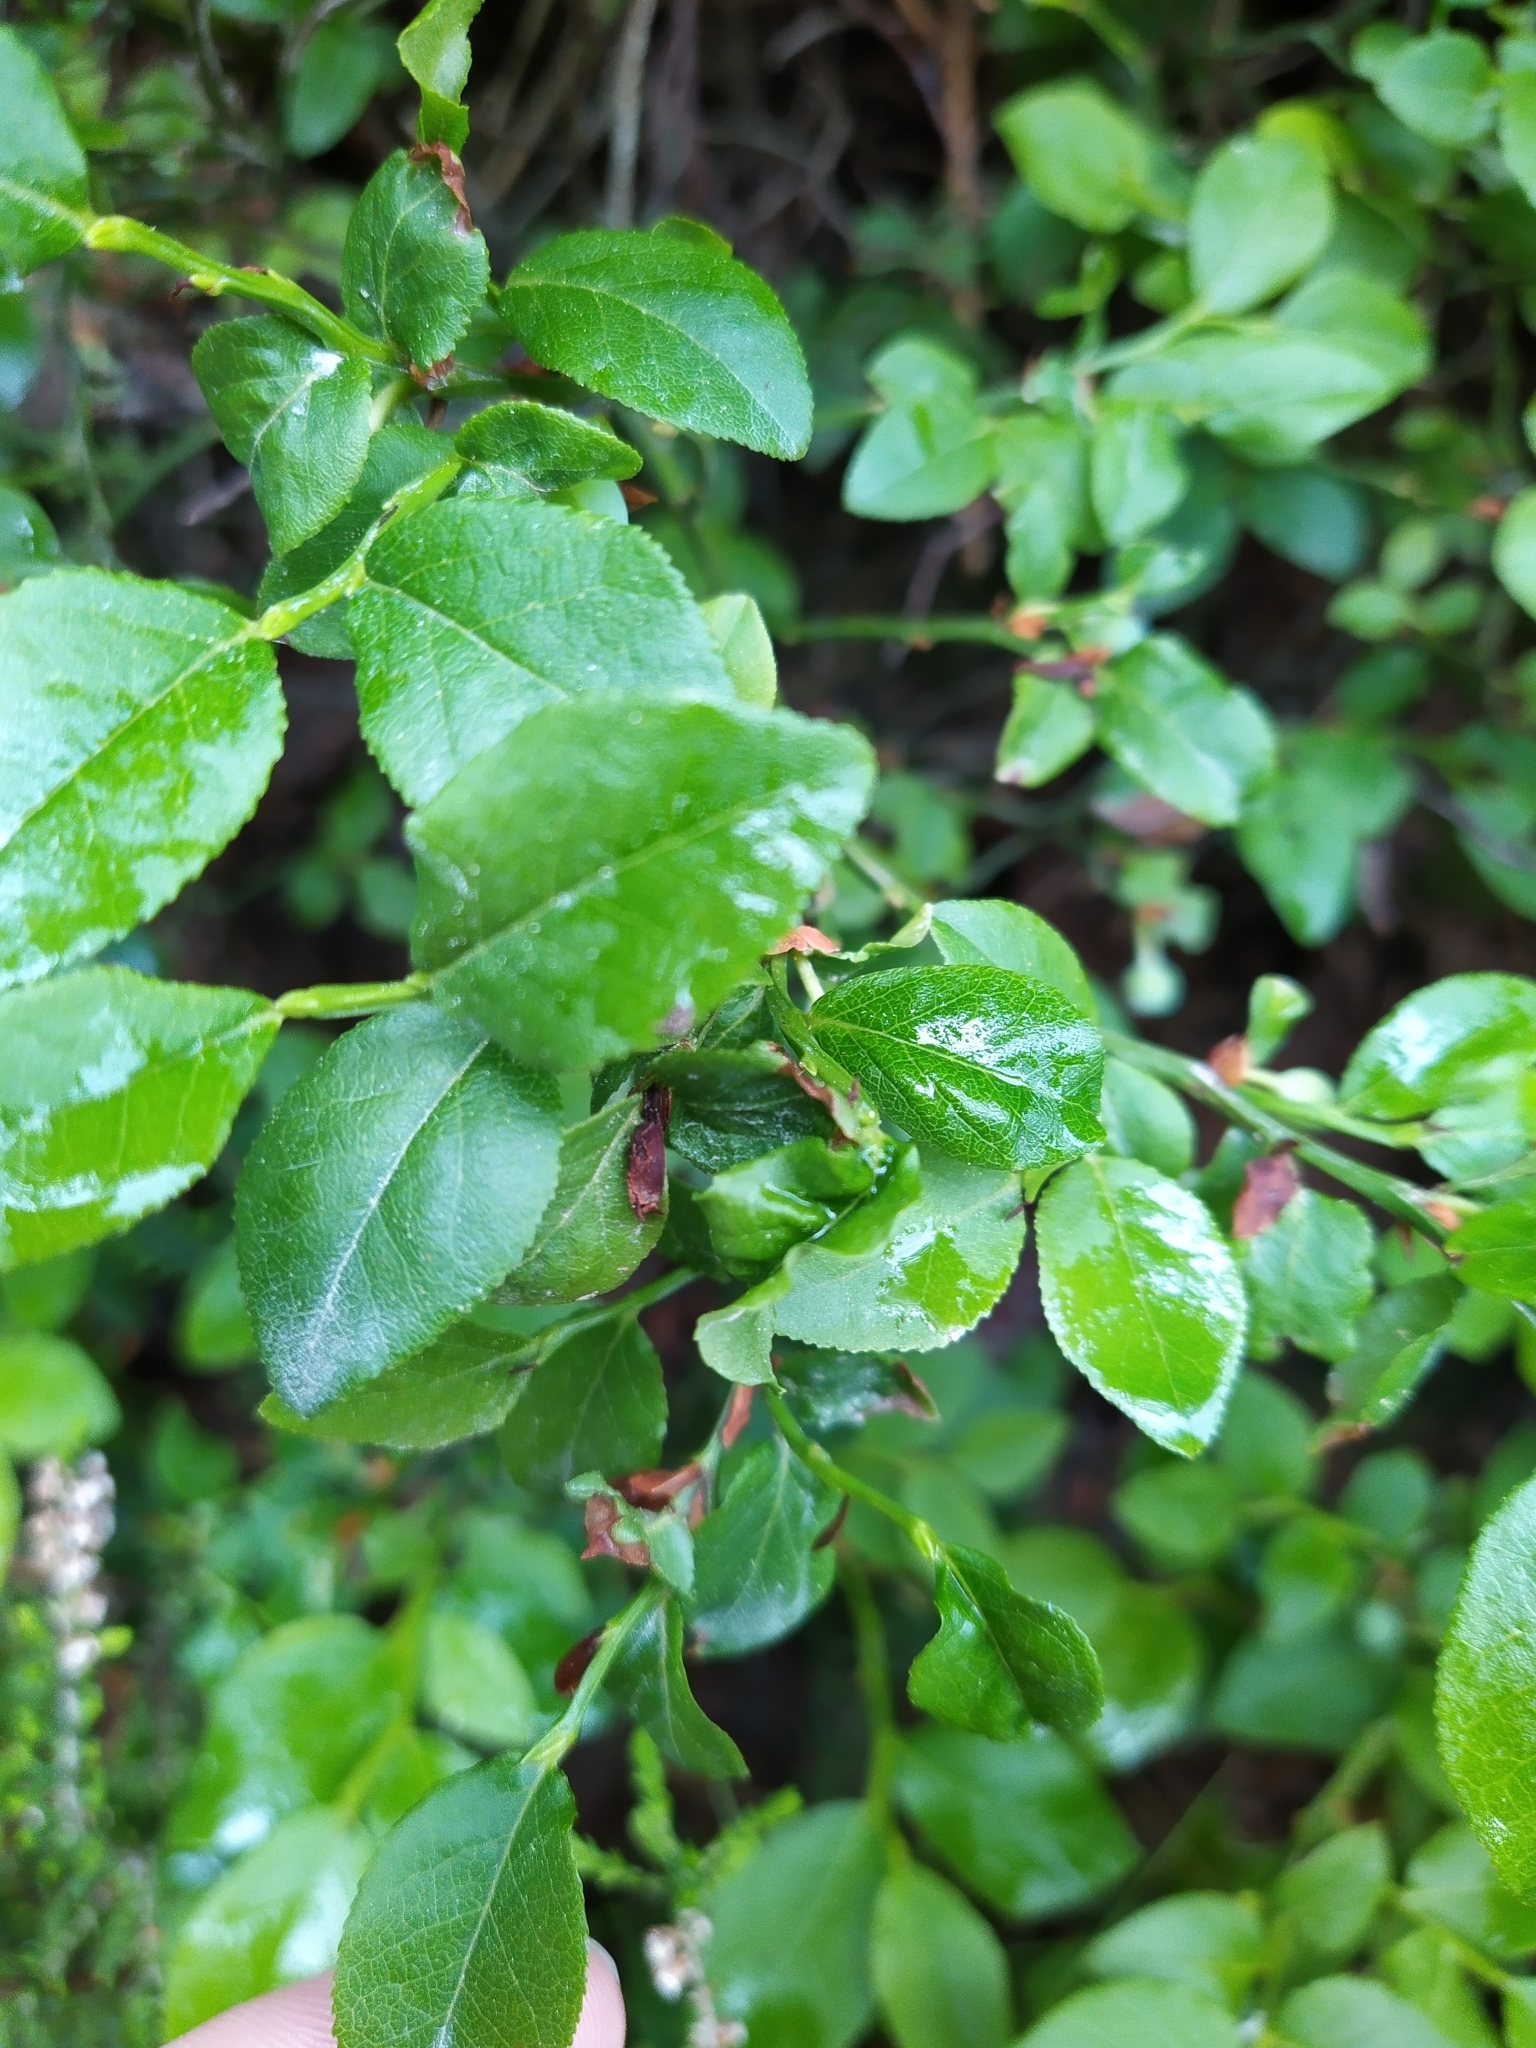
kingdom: Plantae
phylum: Tracheophyta
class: Magnoliopsida
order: Ericales
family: Ericaceae
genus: Vaccinium
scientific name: Vaccinium myrtillus
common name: Bilberry
